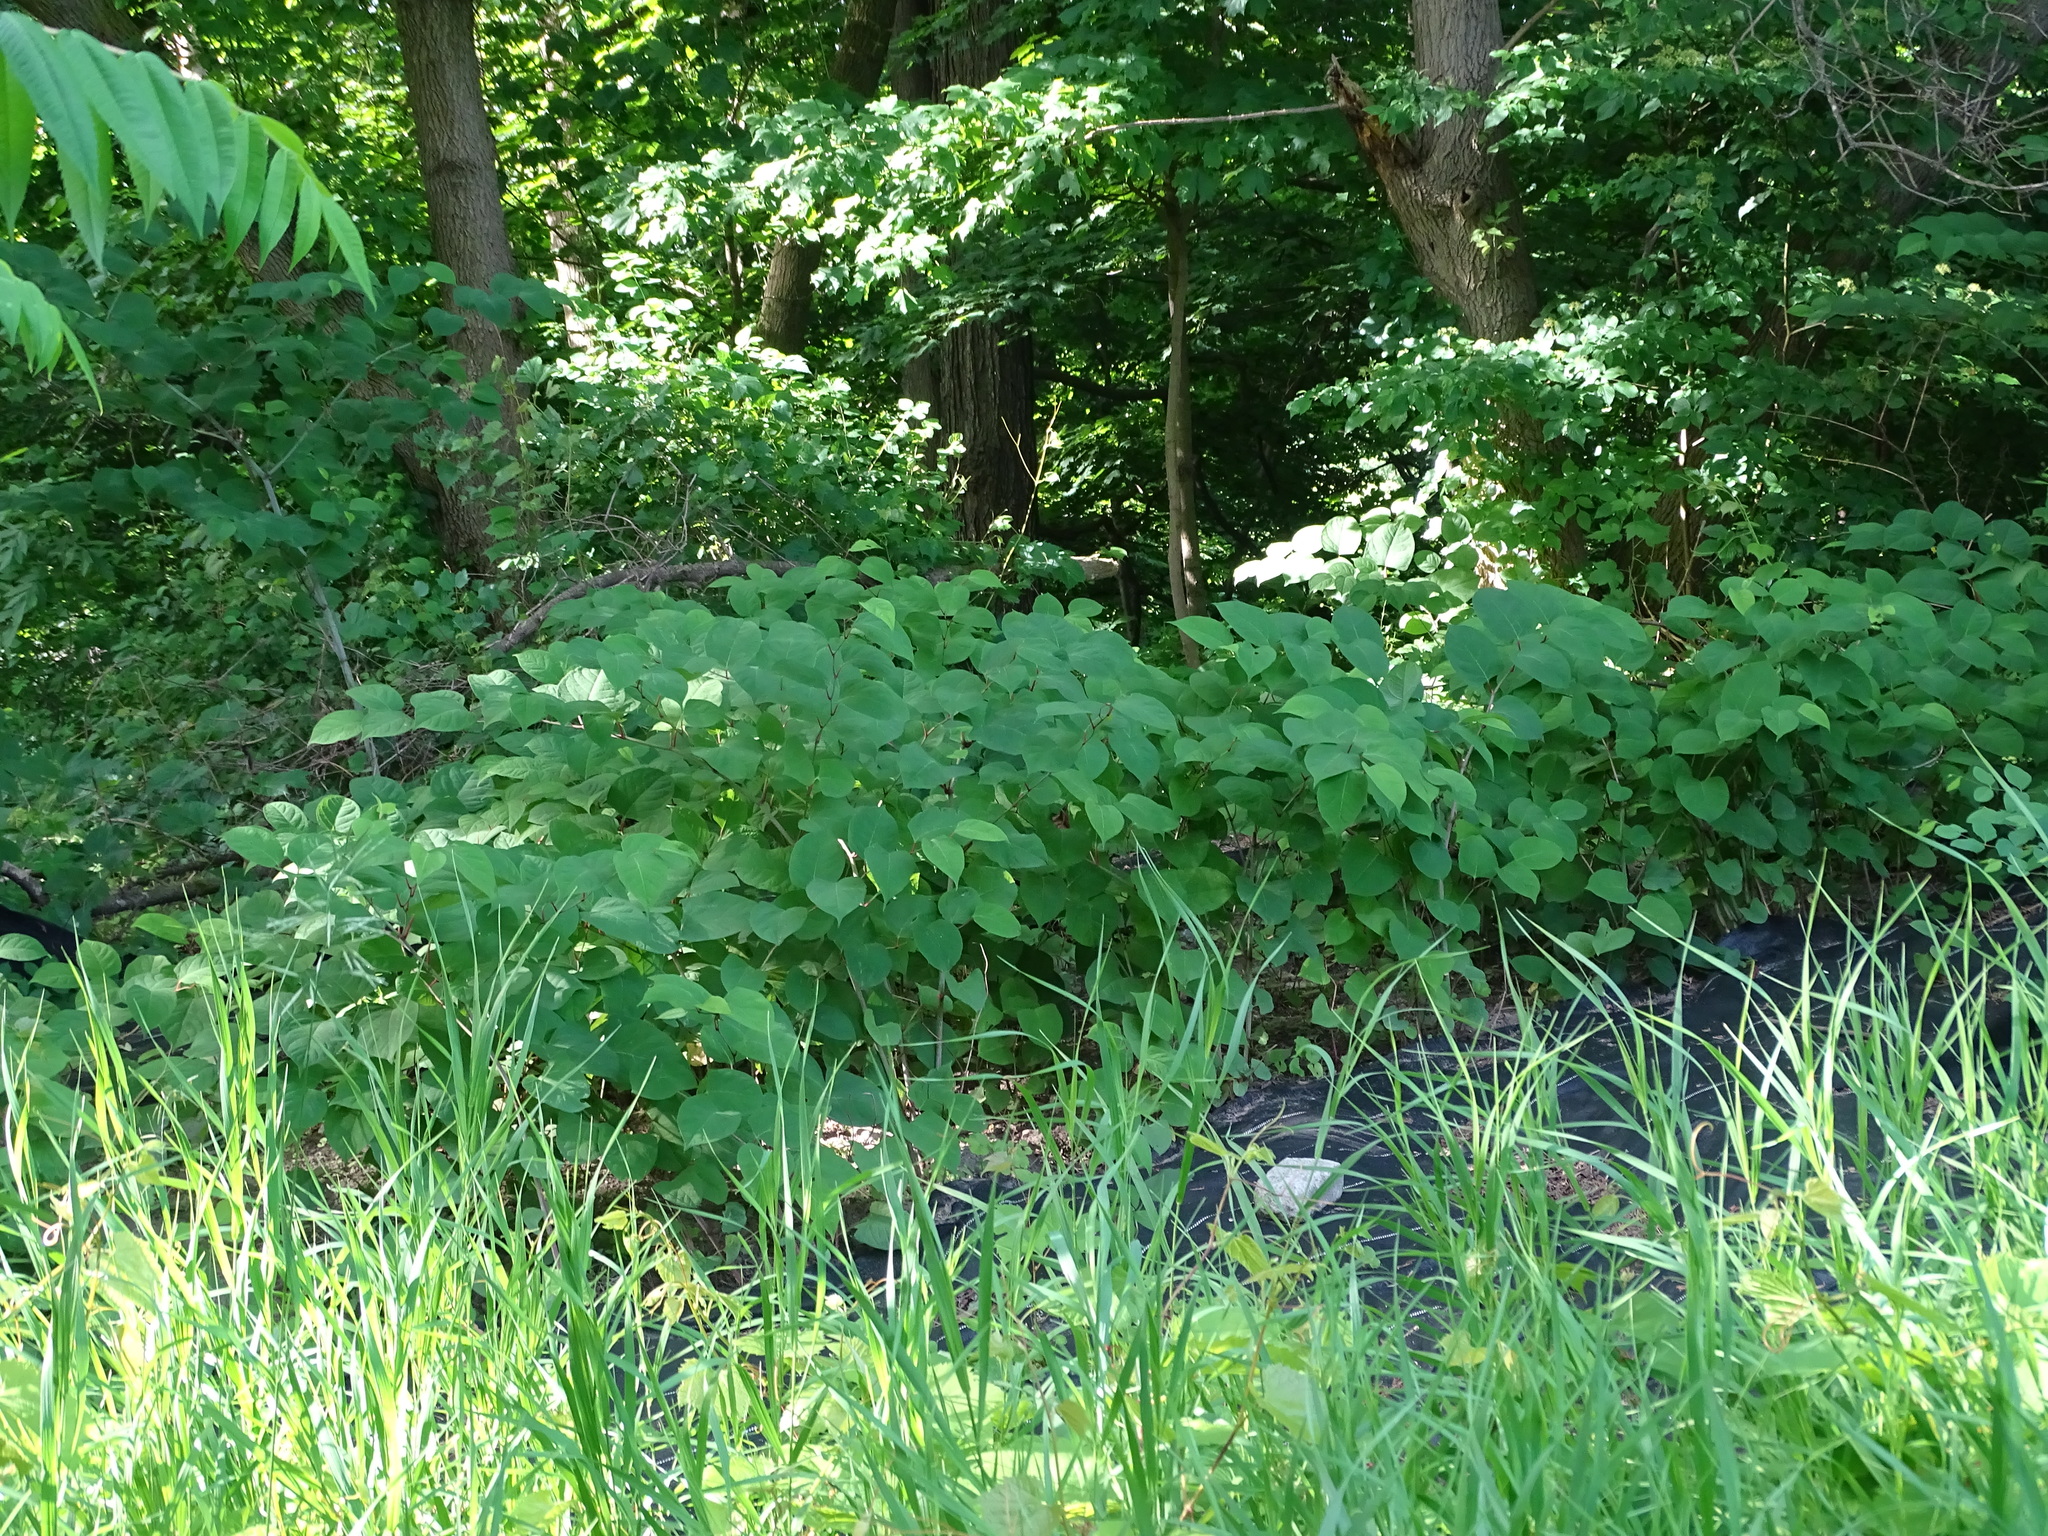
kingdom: Plantae
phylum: Tracheophyta
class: Magnoliopsida
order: Caryophyllales
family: Polygonaceae
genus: Reynoutria
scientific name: Reynoutria japonica
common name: Japanese knotweed
